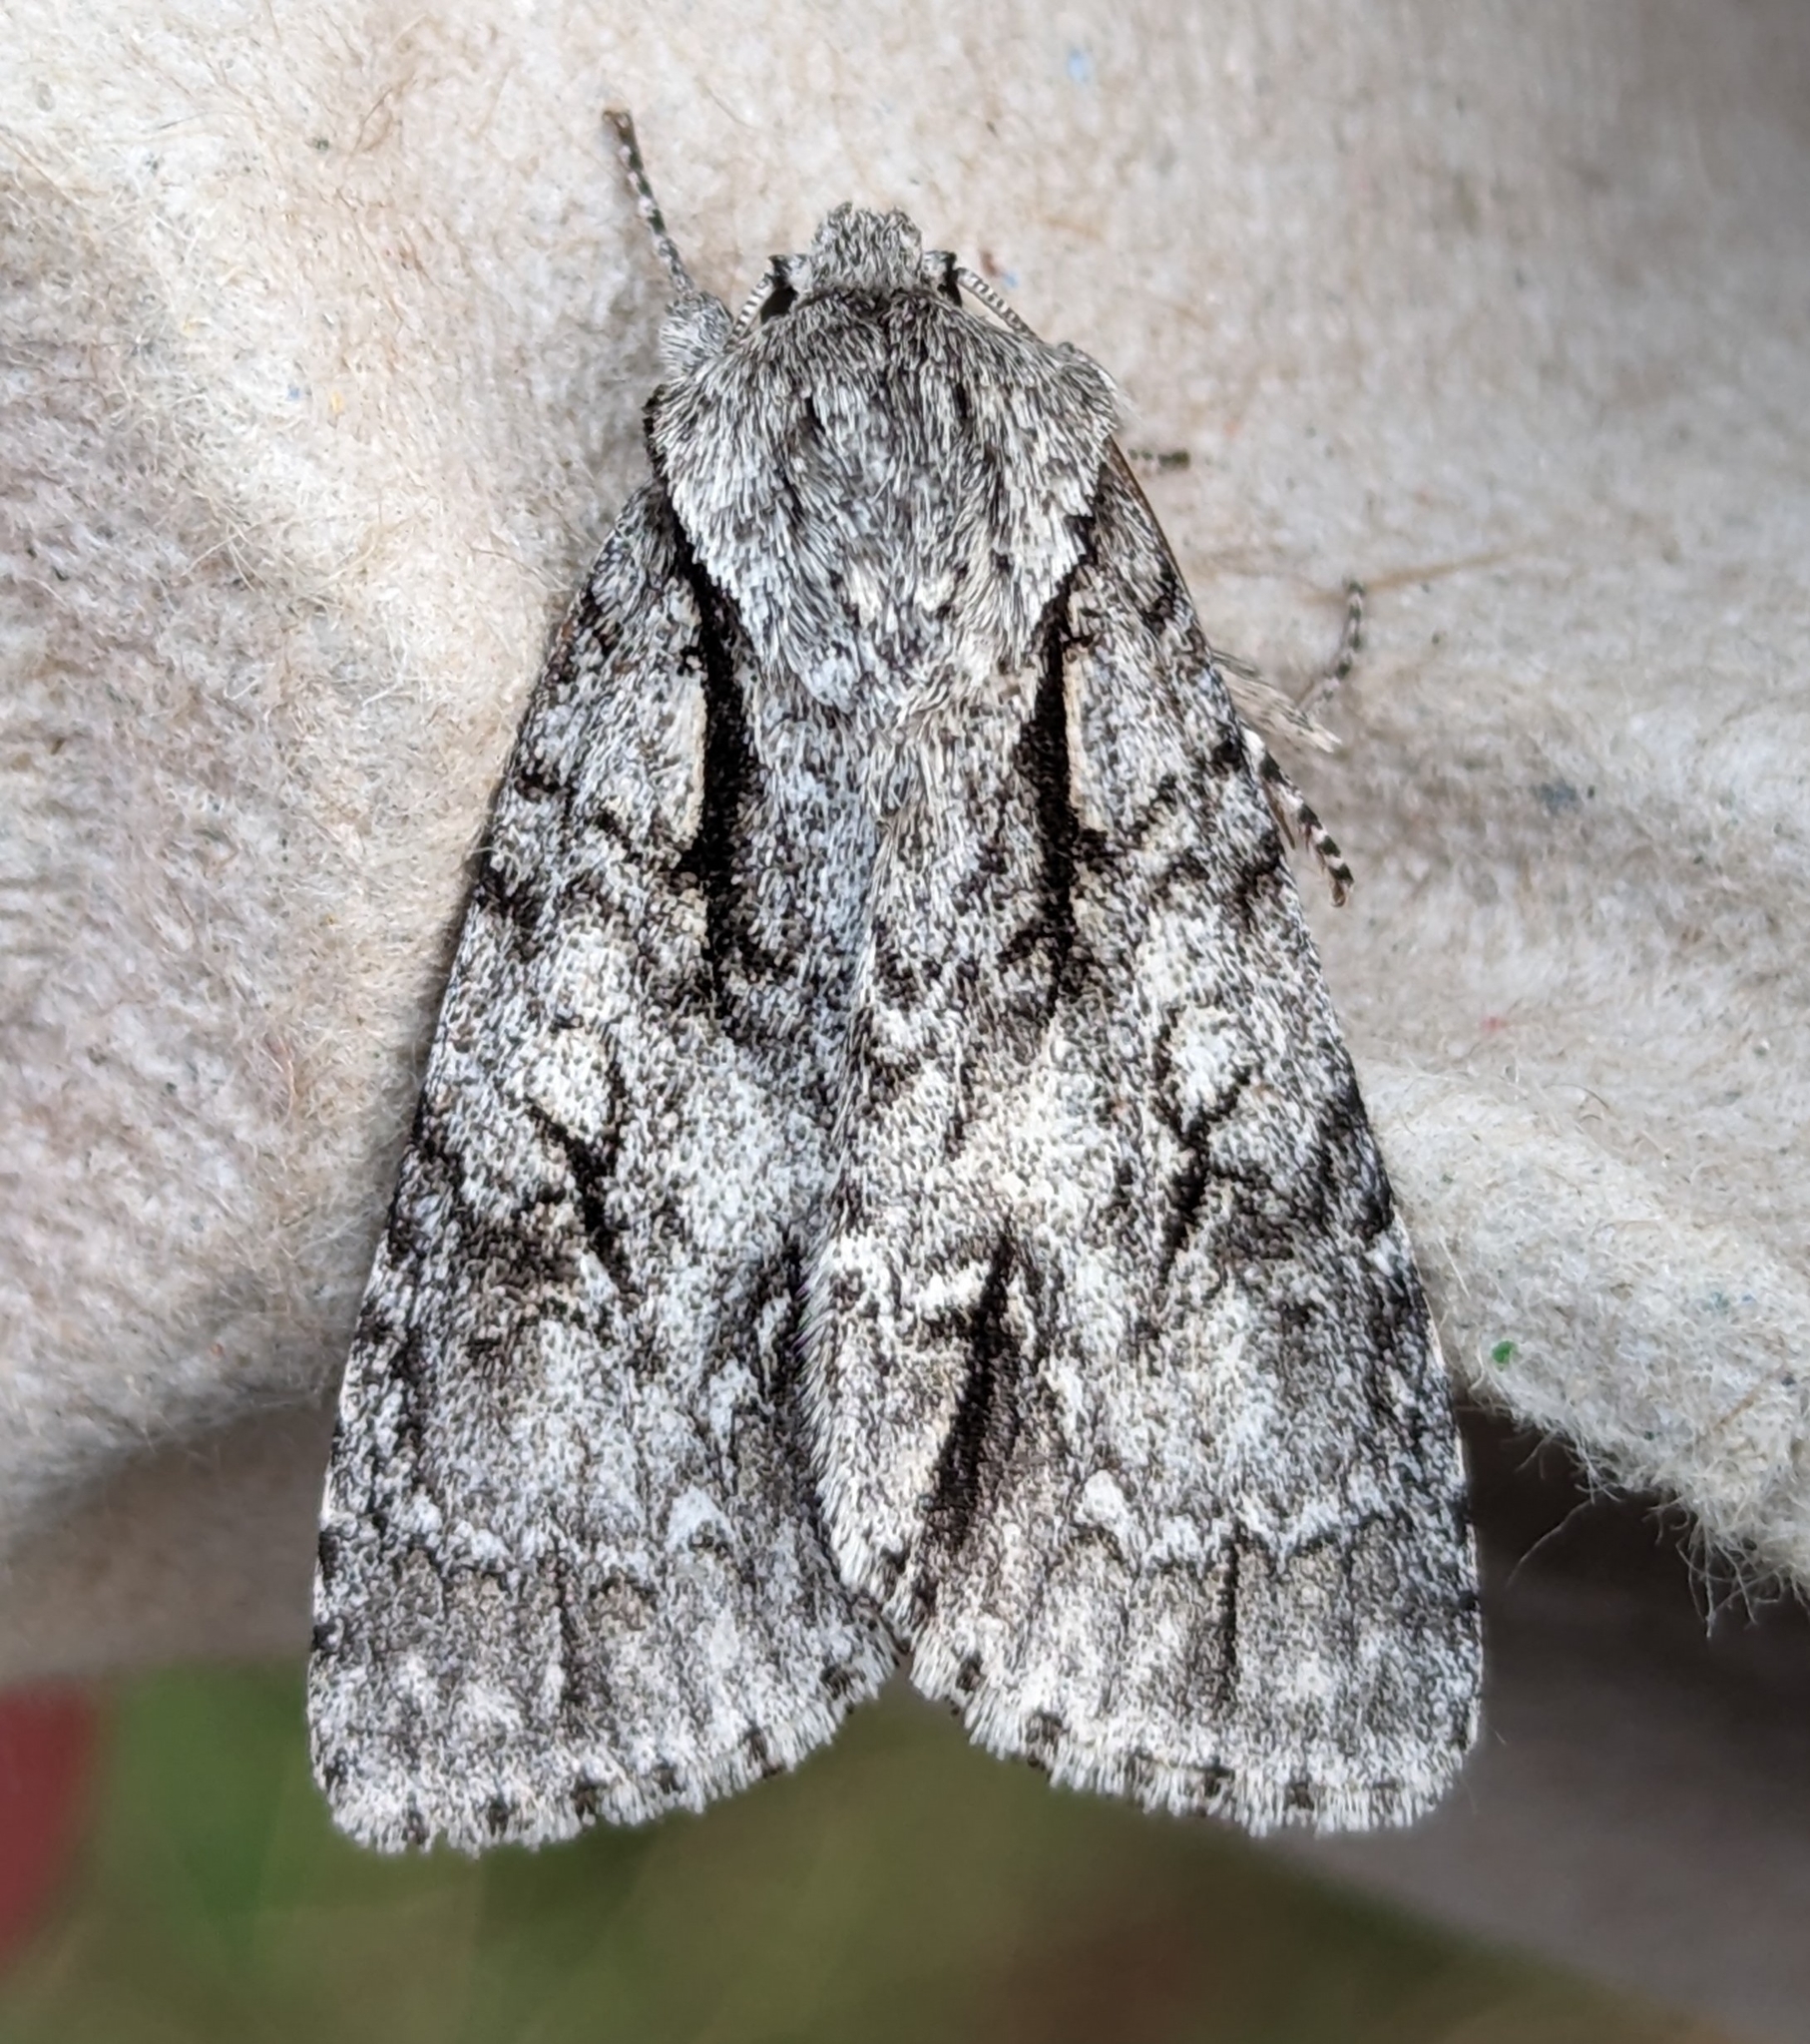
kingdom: Animalia
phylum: Arthropoda
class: Insecta
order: Lepidoptera
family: Noctuidae
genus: Acronicta
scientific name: Acronicta hasta
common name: Cherry dagger
